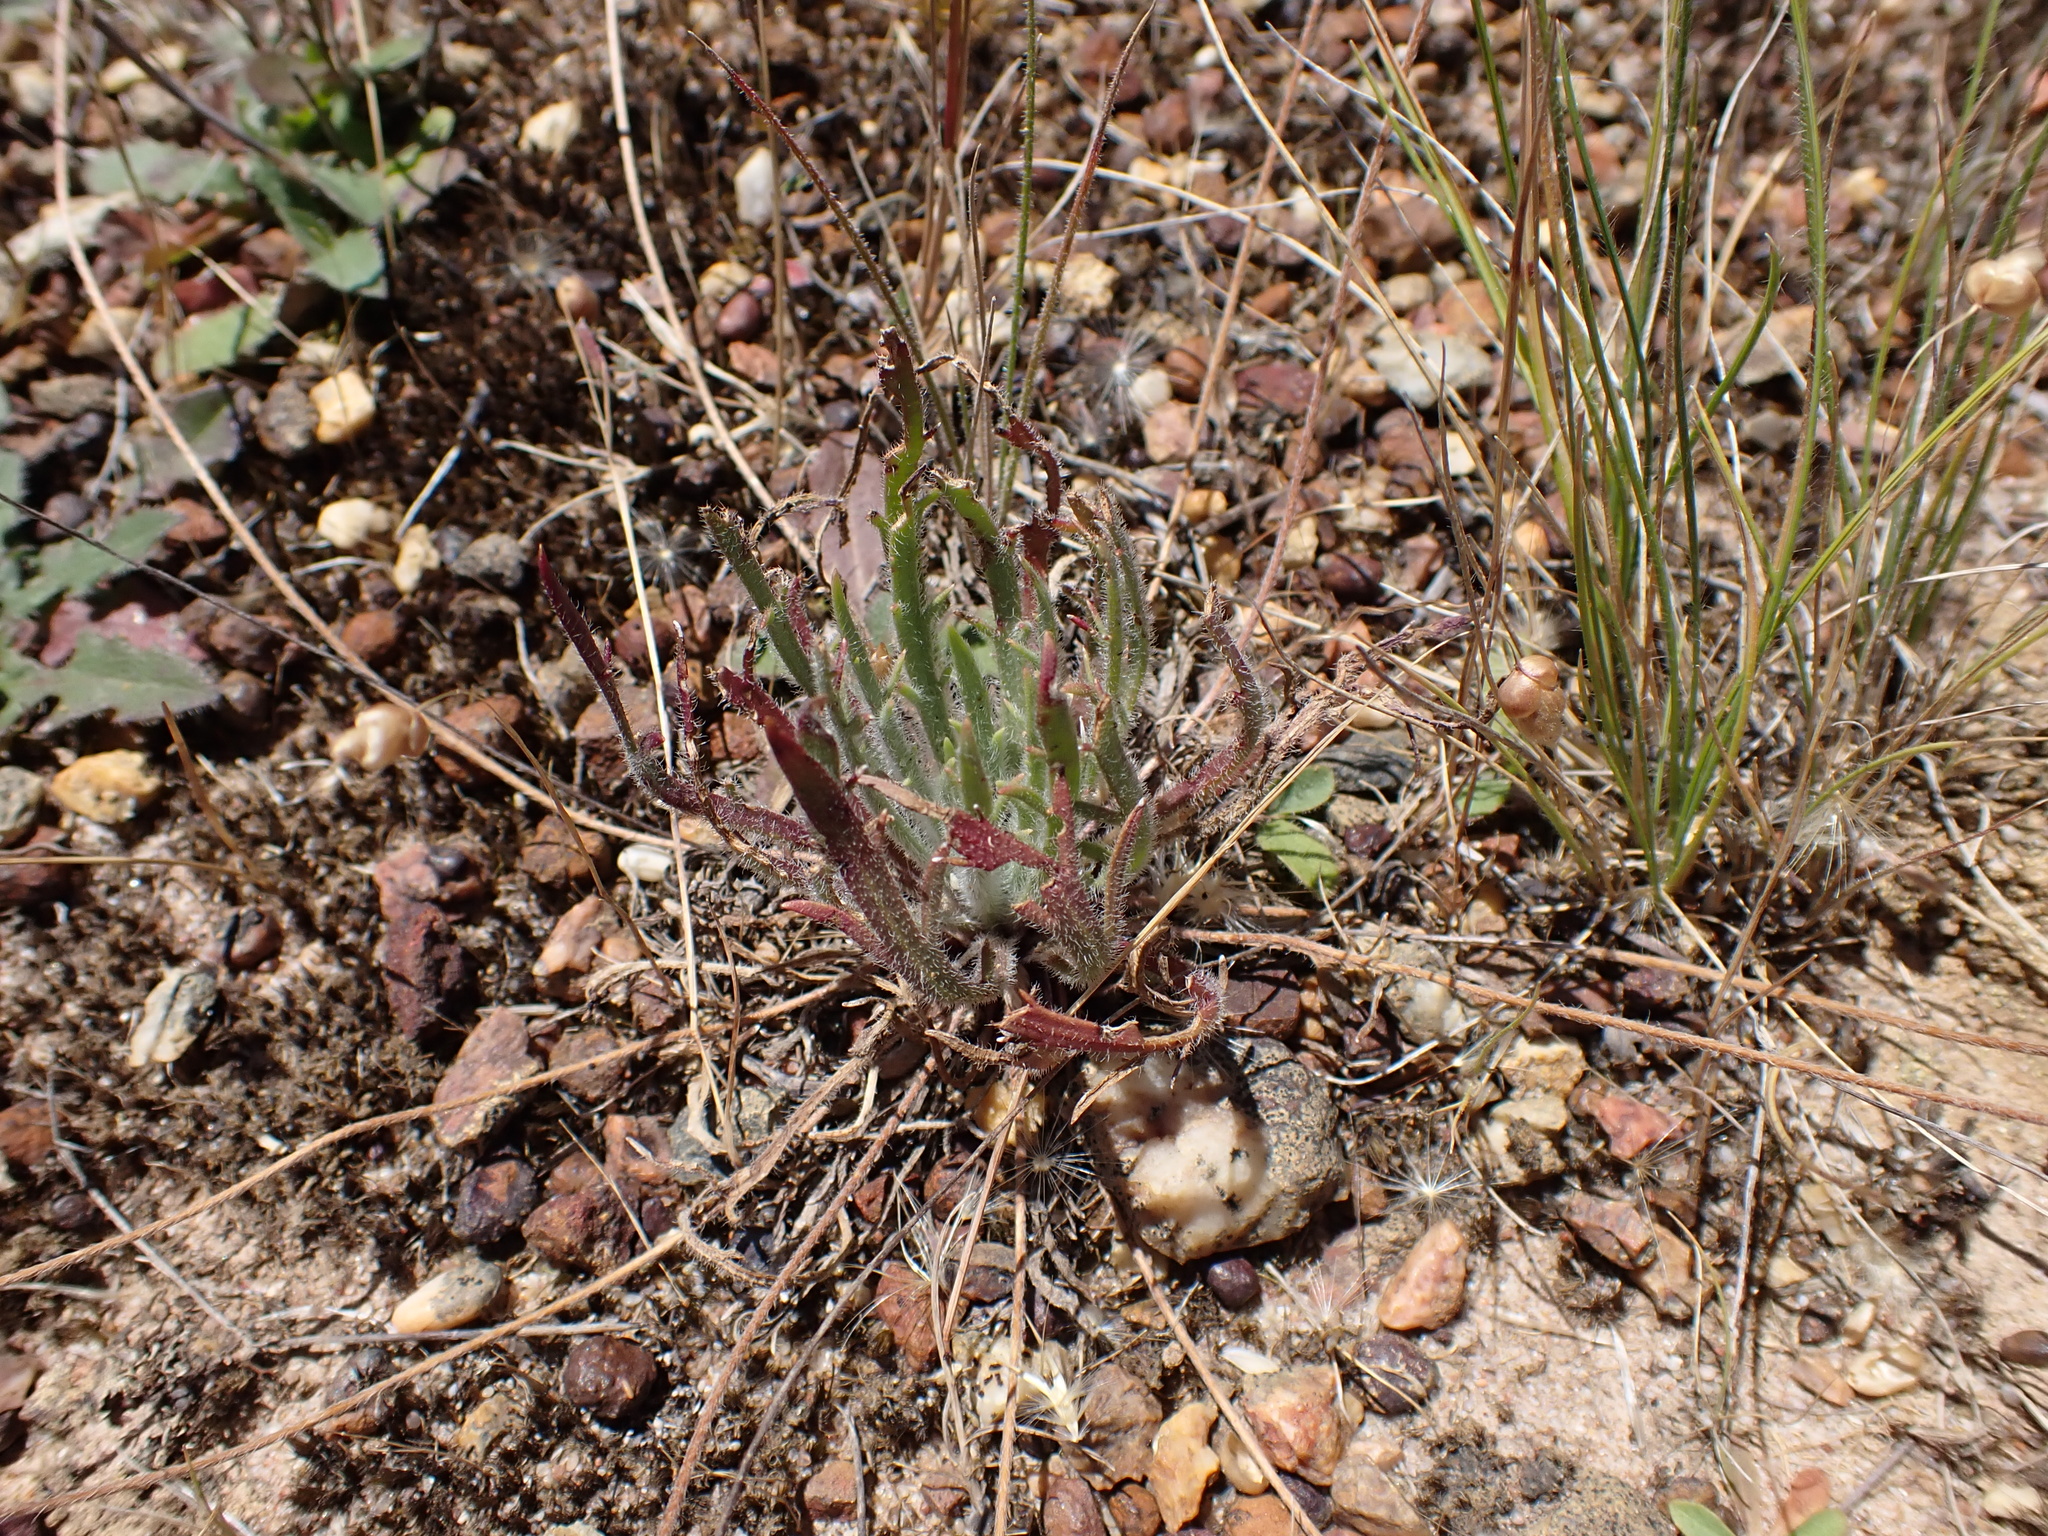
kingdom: Plantae
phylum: Tracheophyta
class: Magnoliopsida
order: Lamiales
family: Plantaginaceae
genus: Plantago
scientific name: Plantago coronopus
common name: Buck's-horn plantain
